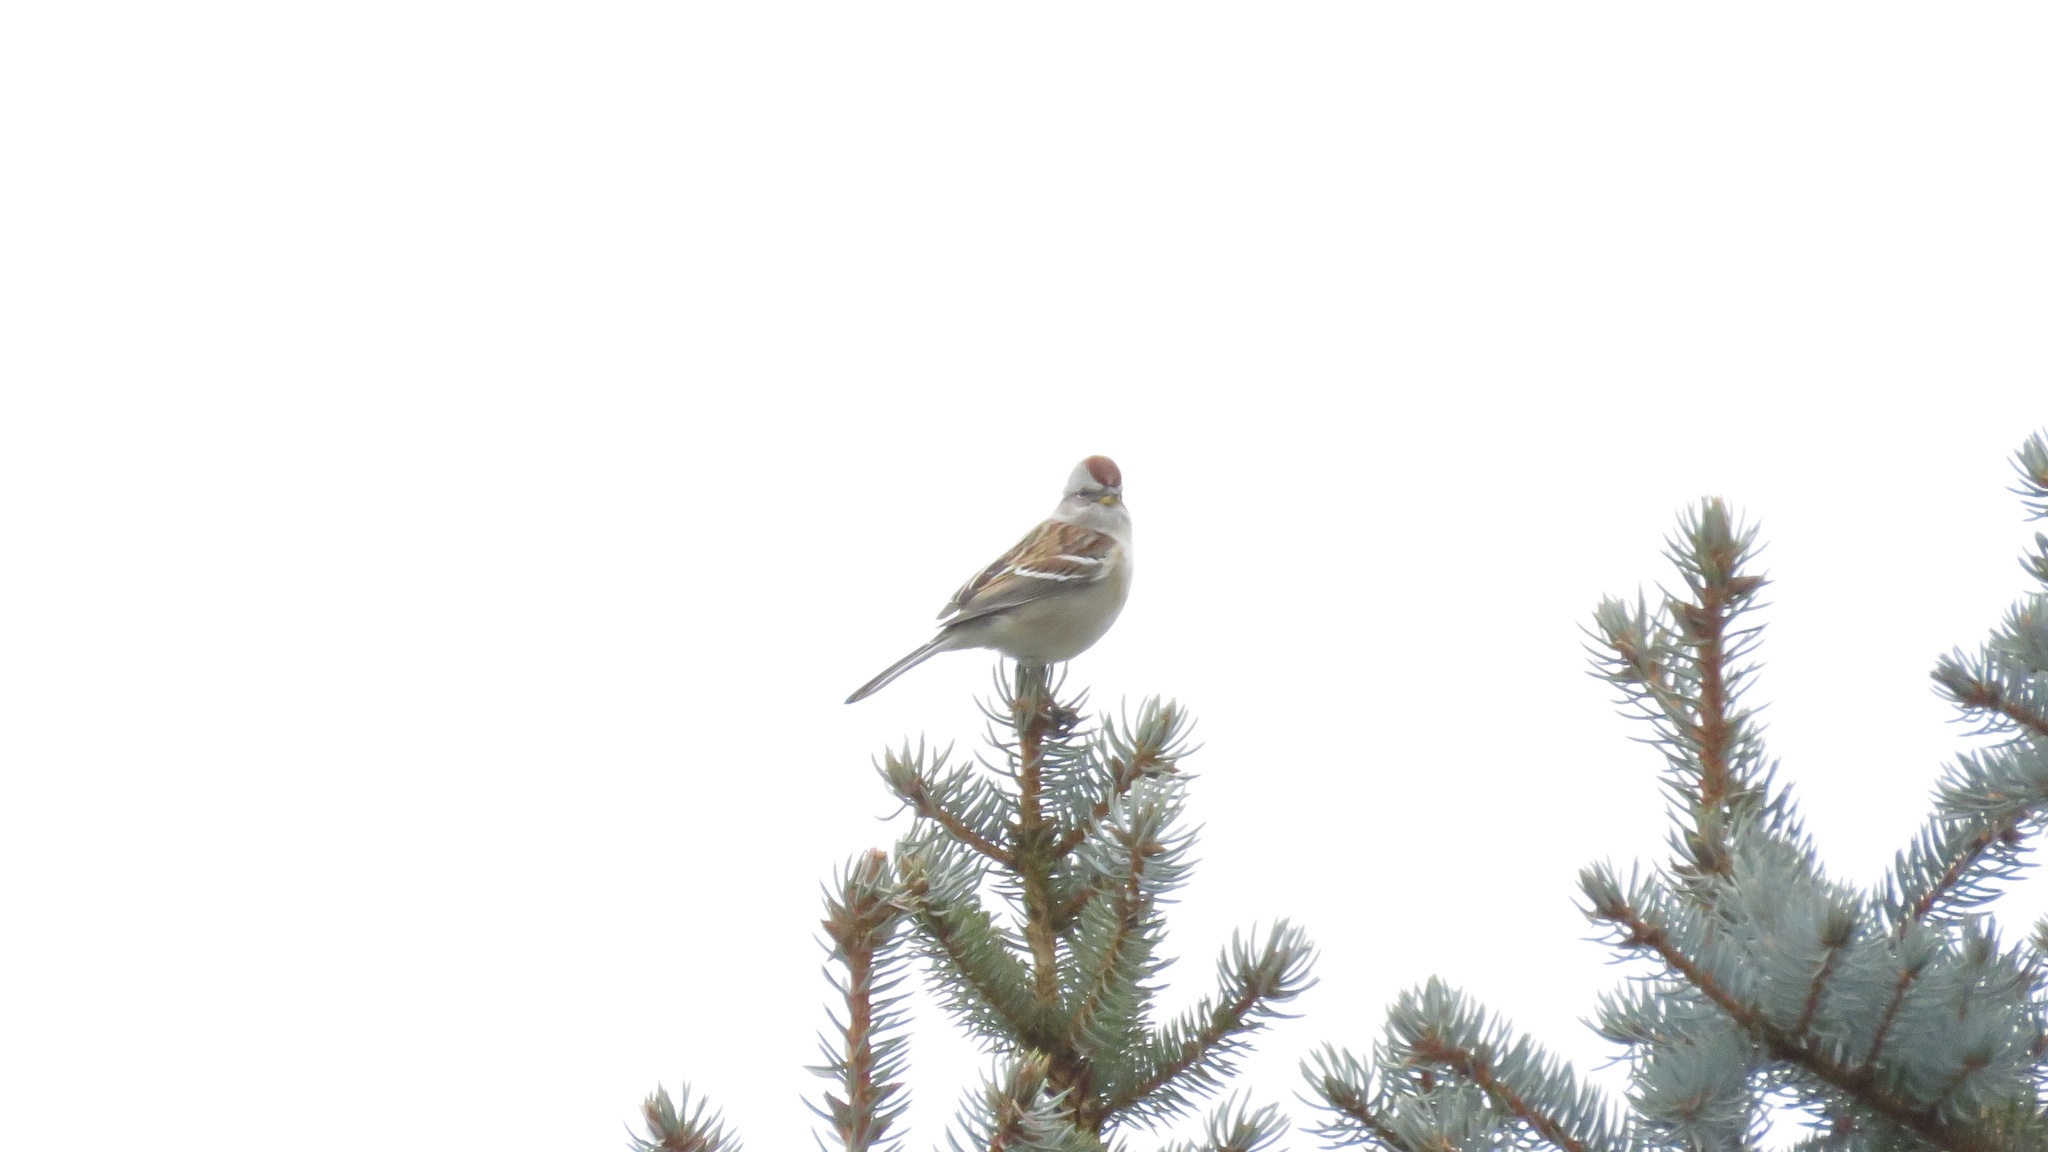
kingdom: Animalia
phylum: Chordata
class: Aves
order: Passeriformes
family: Passerellidae
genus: Spizelloides
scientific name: Spizelloides arborea
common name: American tree sparrow
